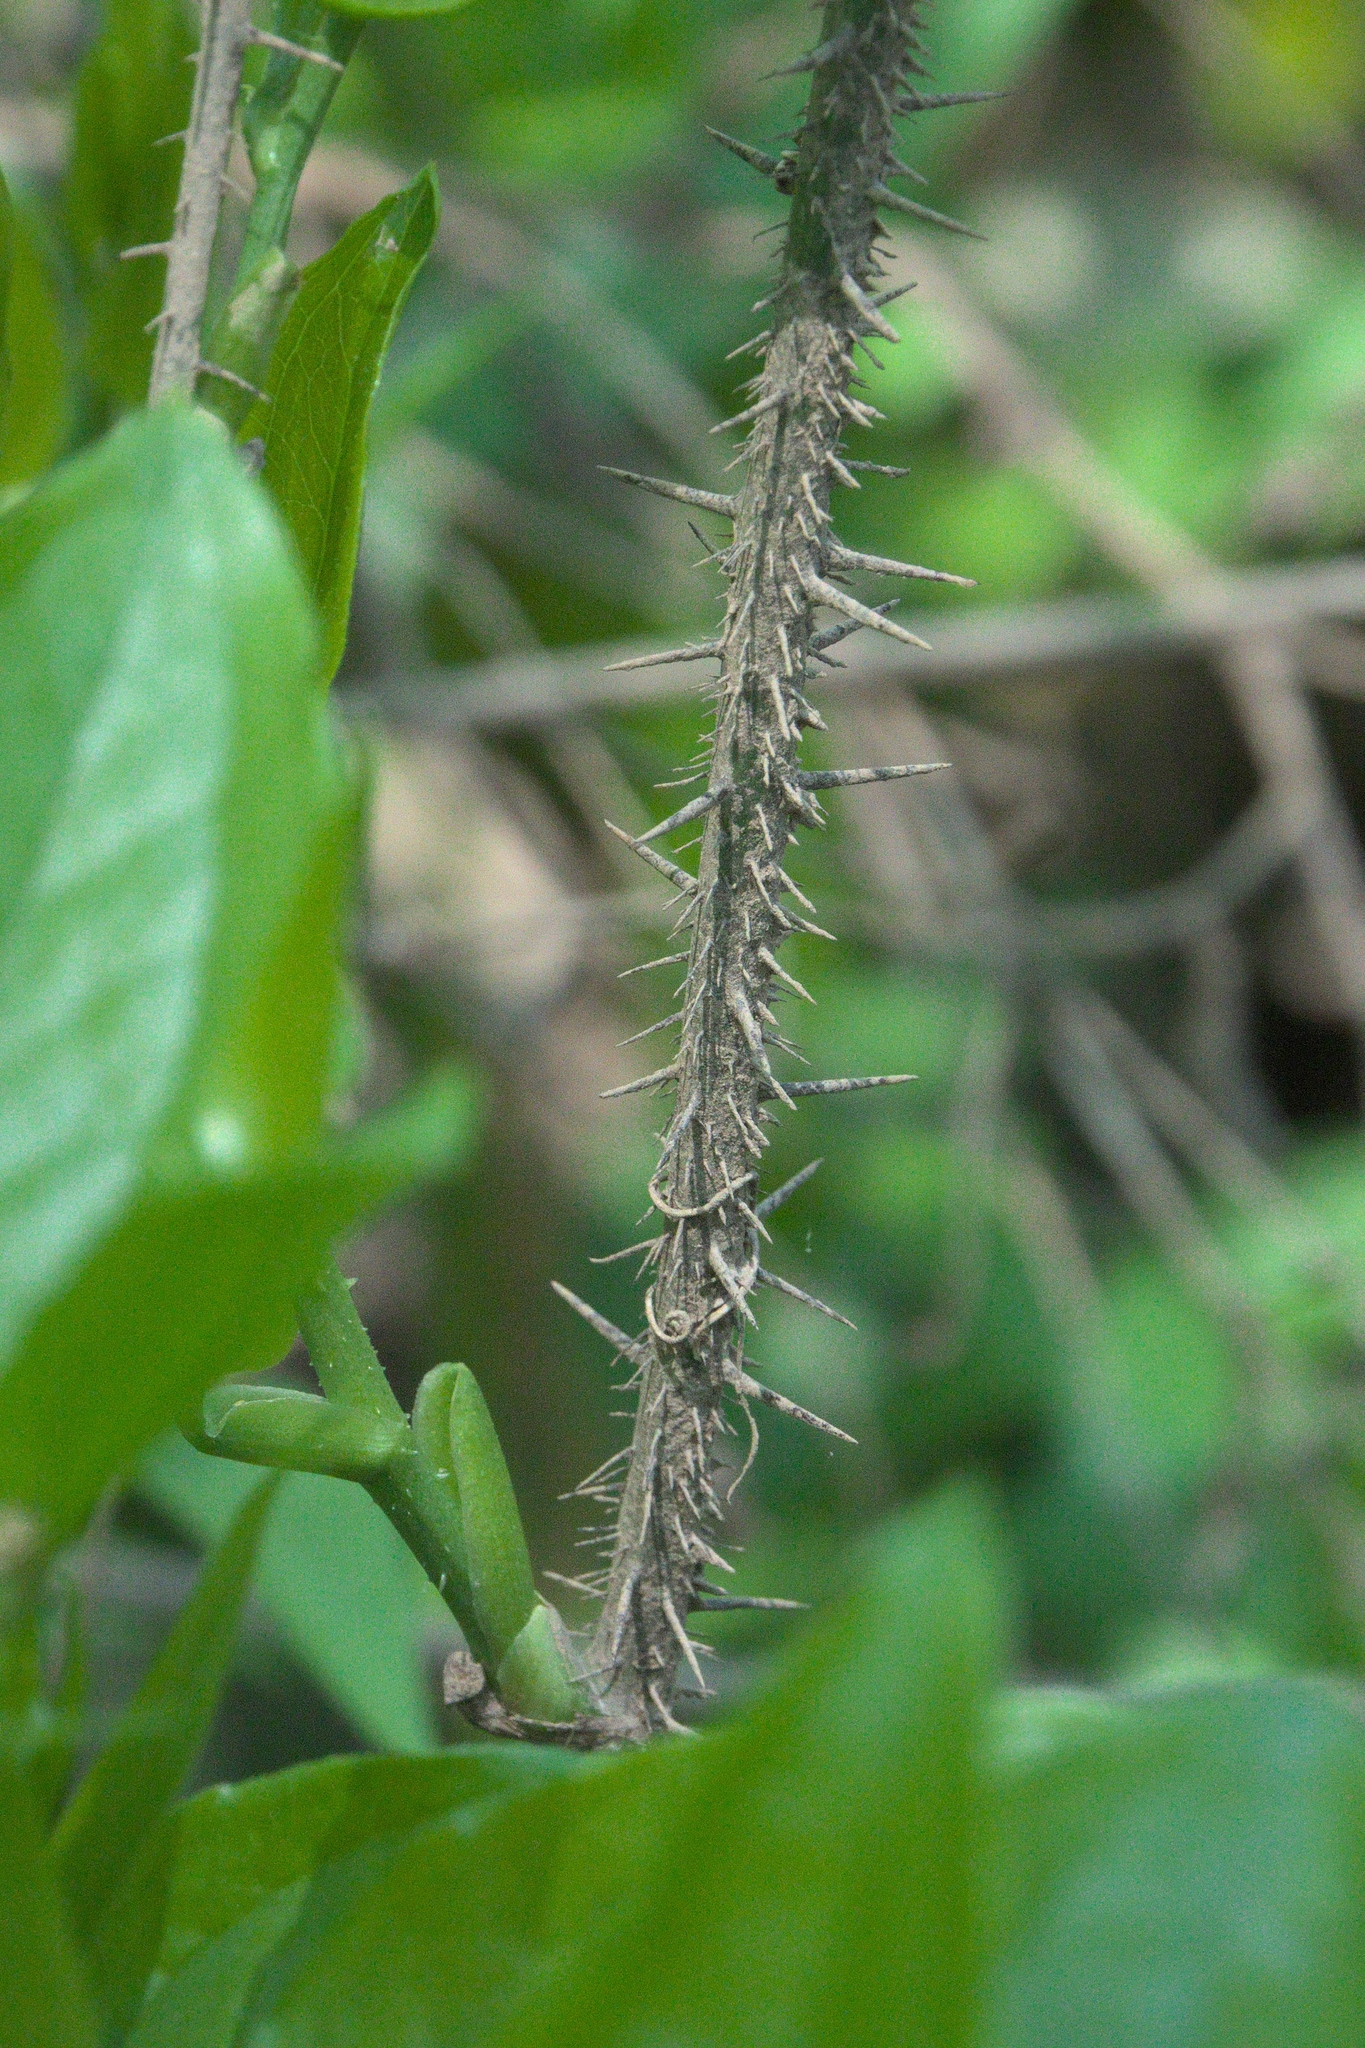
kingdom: Plantae
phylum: Tracheophyta
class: Liliopsida
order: Liliales
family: Smilacaceae
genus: Smilax
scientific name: Smilax tamnoides
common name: Hellfetter
